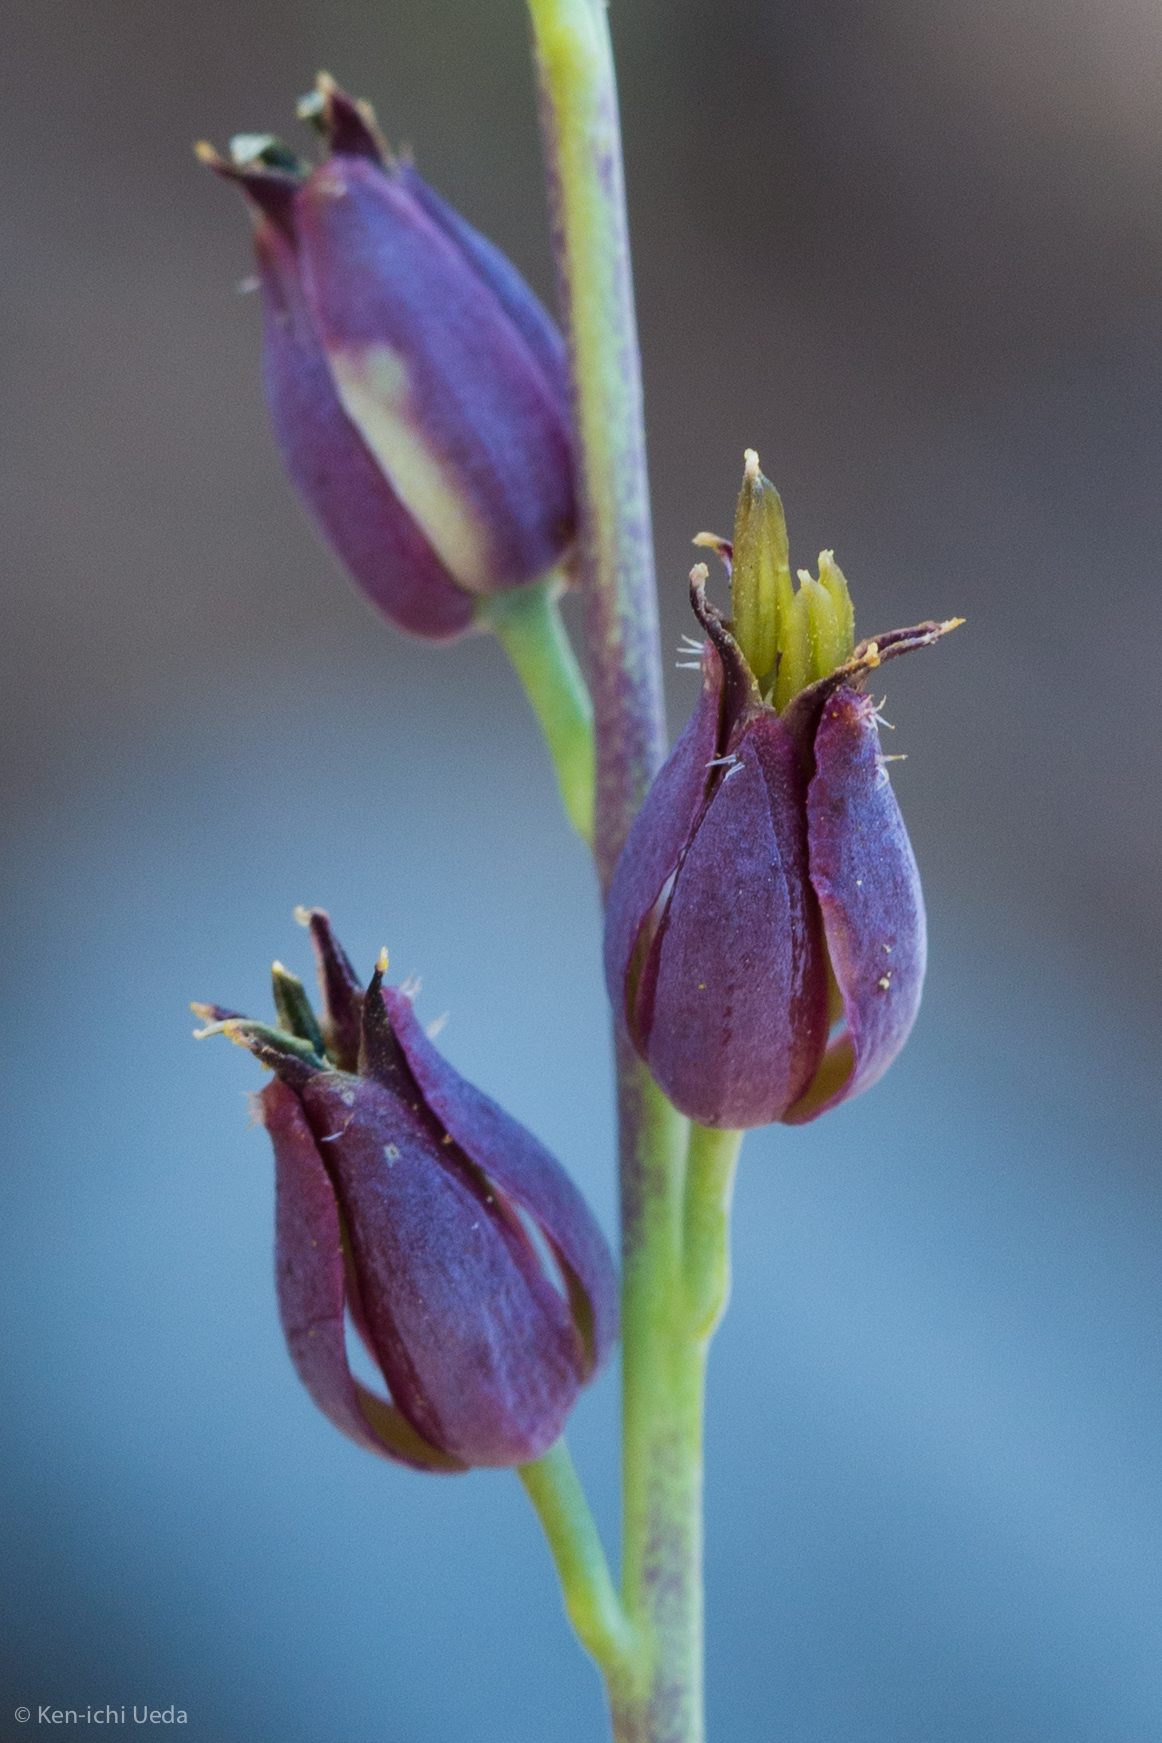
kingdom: Plantae
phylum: Tracheophyta
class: Magnoliopsida
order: Brassicales
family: Brassicaceae
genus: Streptanthus
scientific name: Streptanthus barbatus
